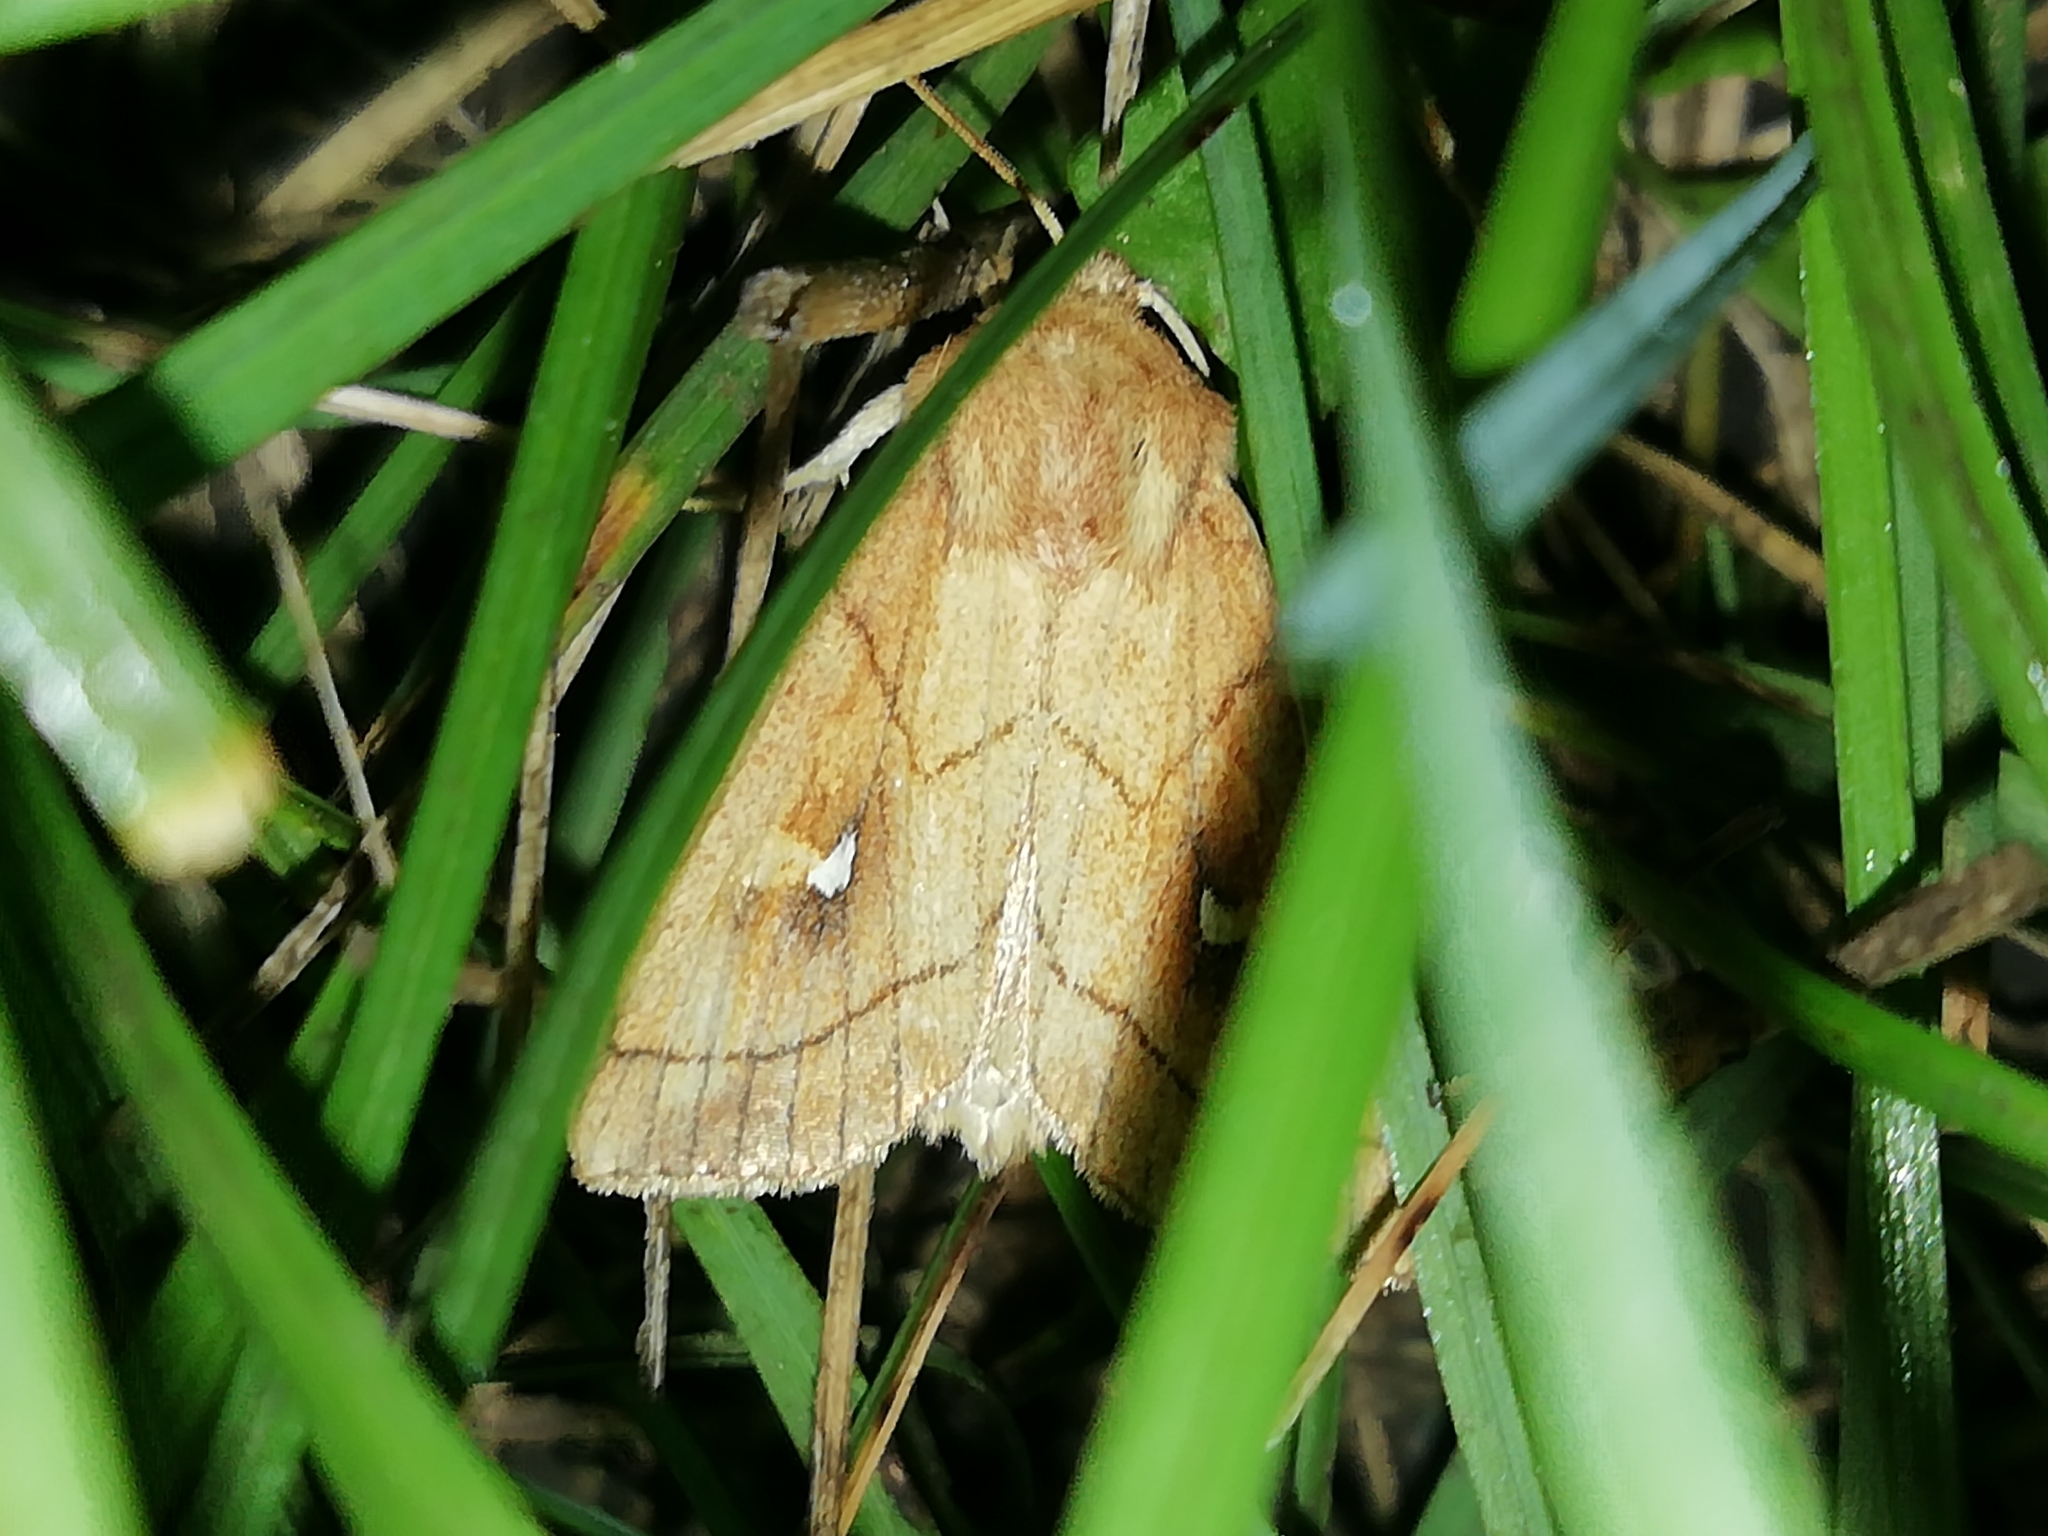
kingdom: Animalia
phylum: Arthropoda
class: Insecta
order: Lepidoptera
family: Noctuidae
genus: Mythimna
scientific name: Mythimna conigera
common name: Brown-line bright-eye
